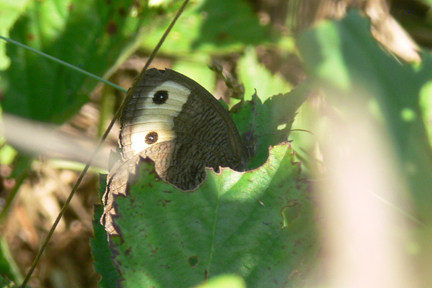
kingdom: Animalia
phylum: Arthropoda
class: Insecta
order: Lepidoptera
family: Nymphalidae
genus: Cercyonis
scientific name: Cercyonis pegala
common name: Common wood-nymph
